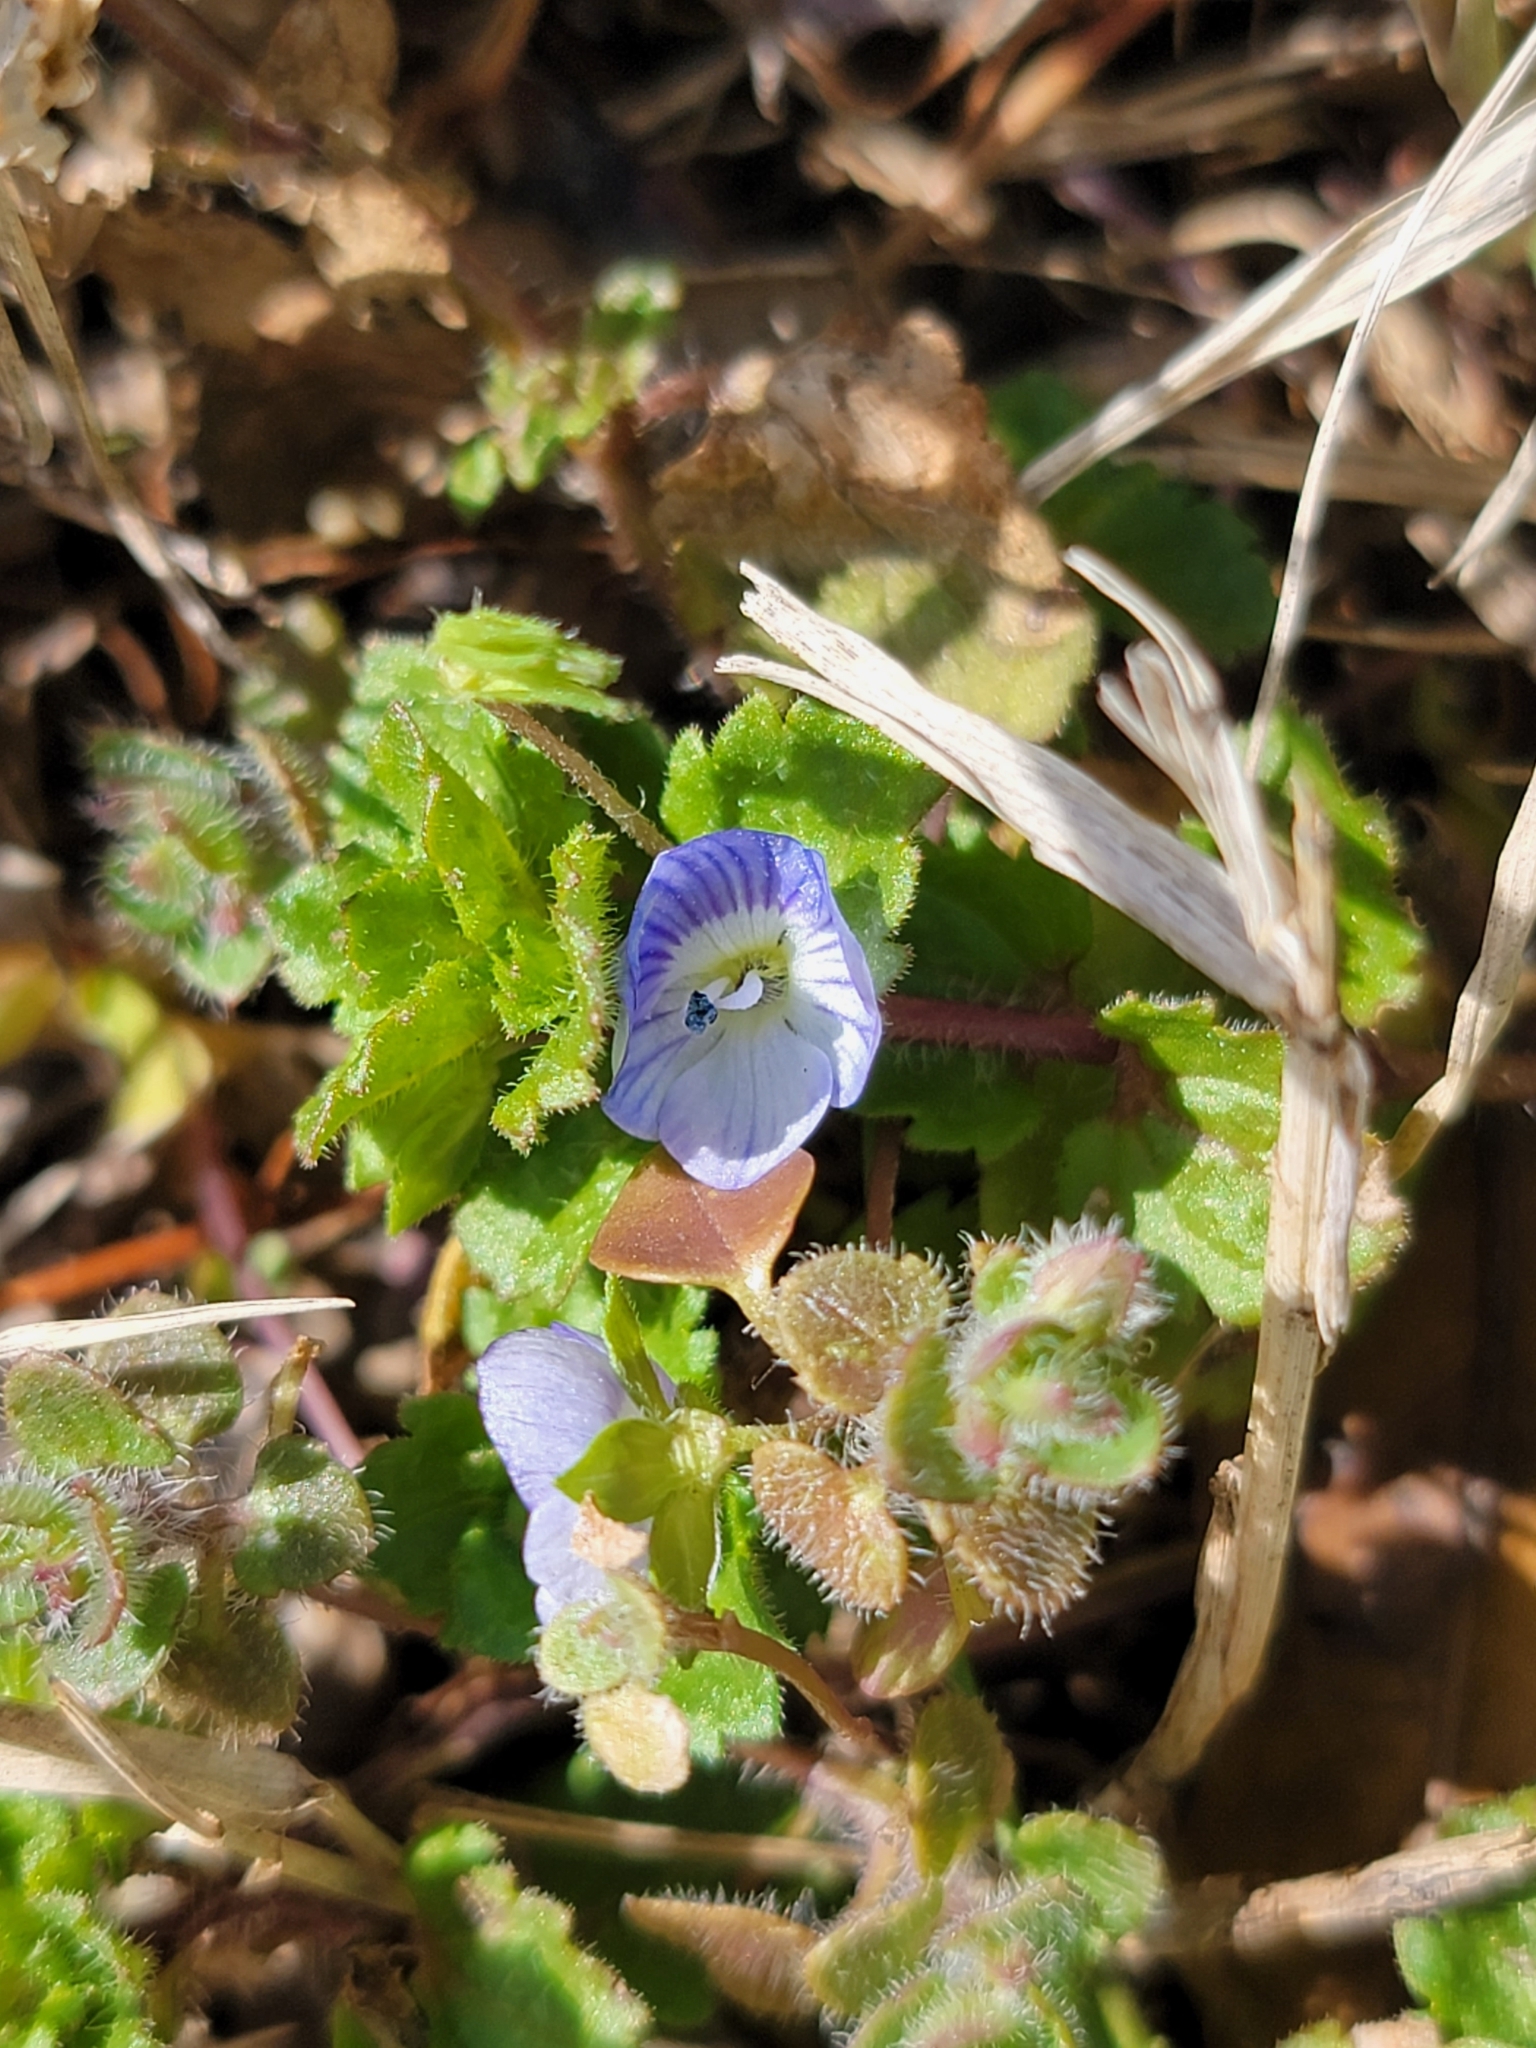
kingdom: Plantae
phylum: Tracheophyta
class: Magnoliopsida
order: Lamiales
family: Plantaginaceae
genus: Veronica
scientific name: Veronica persica
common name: Common field-speedwell
